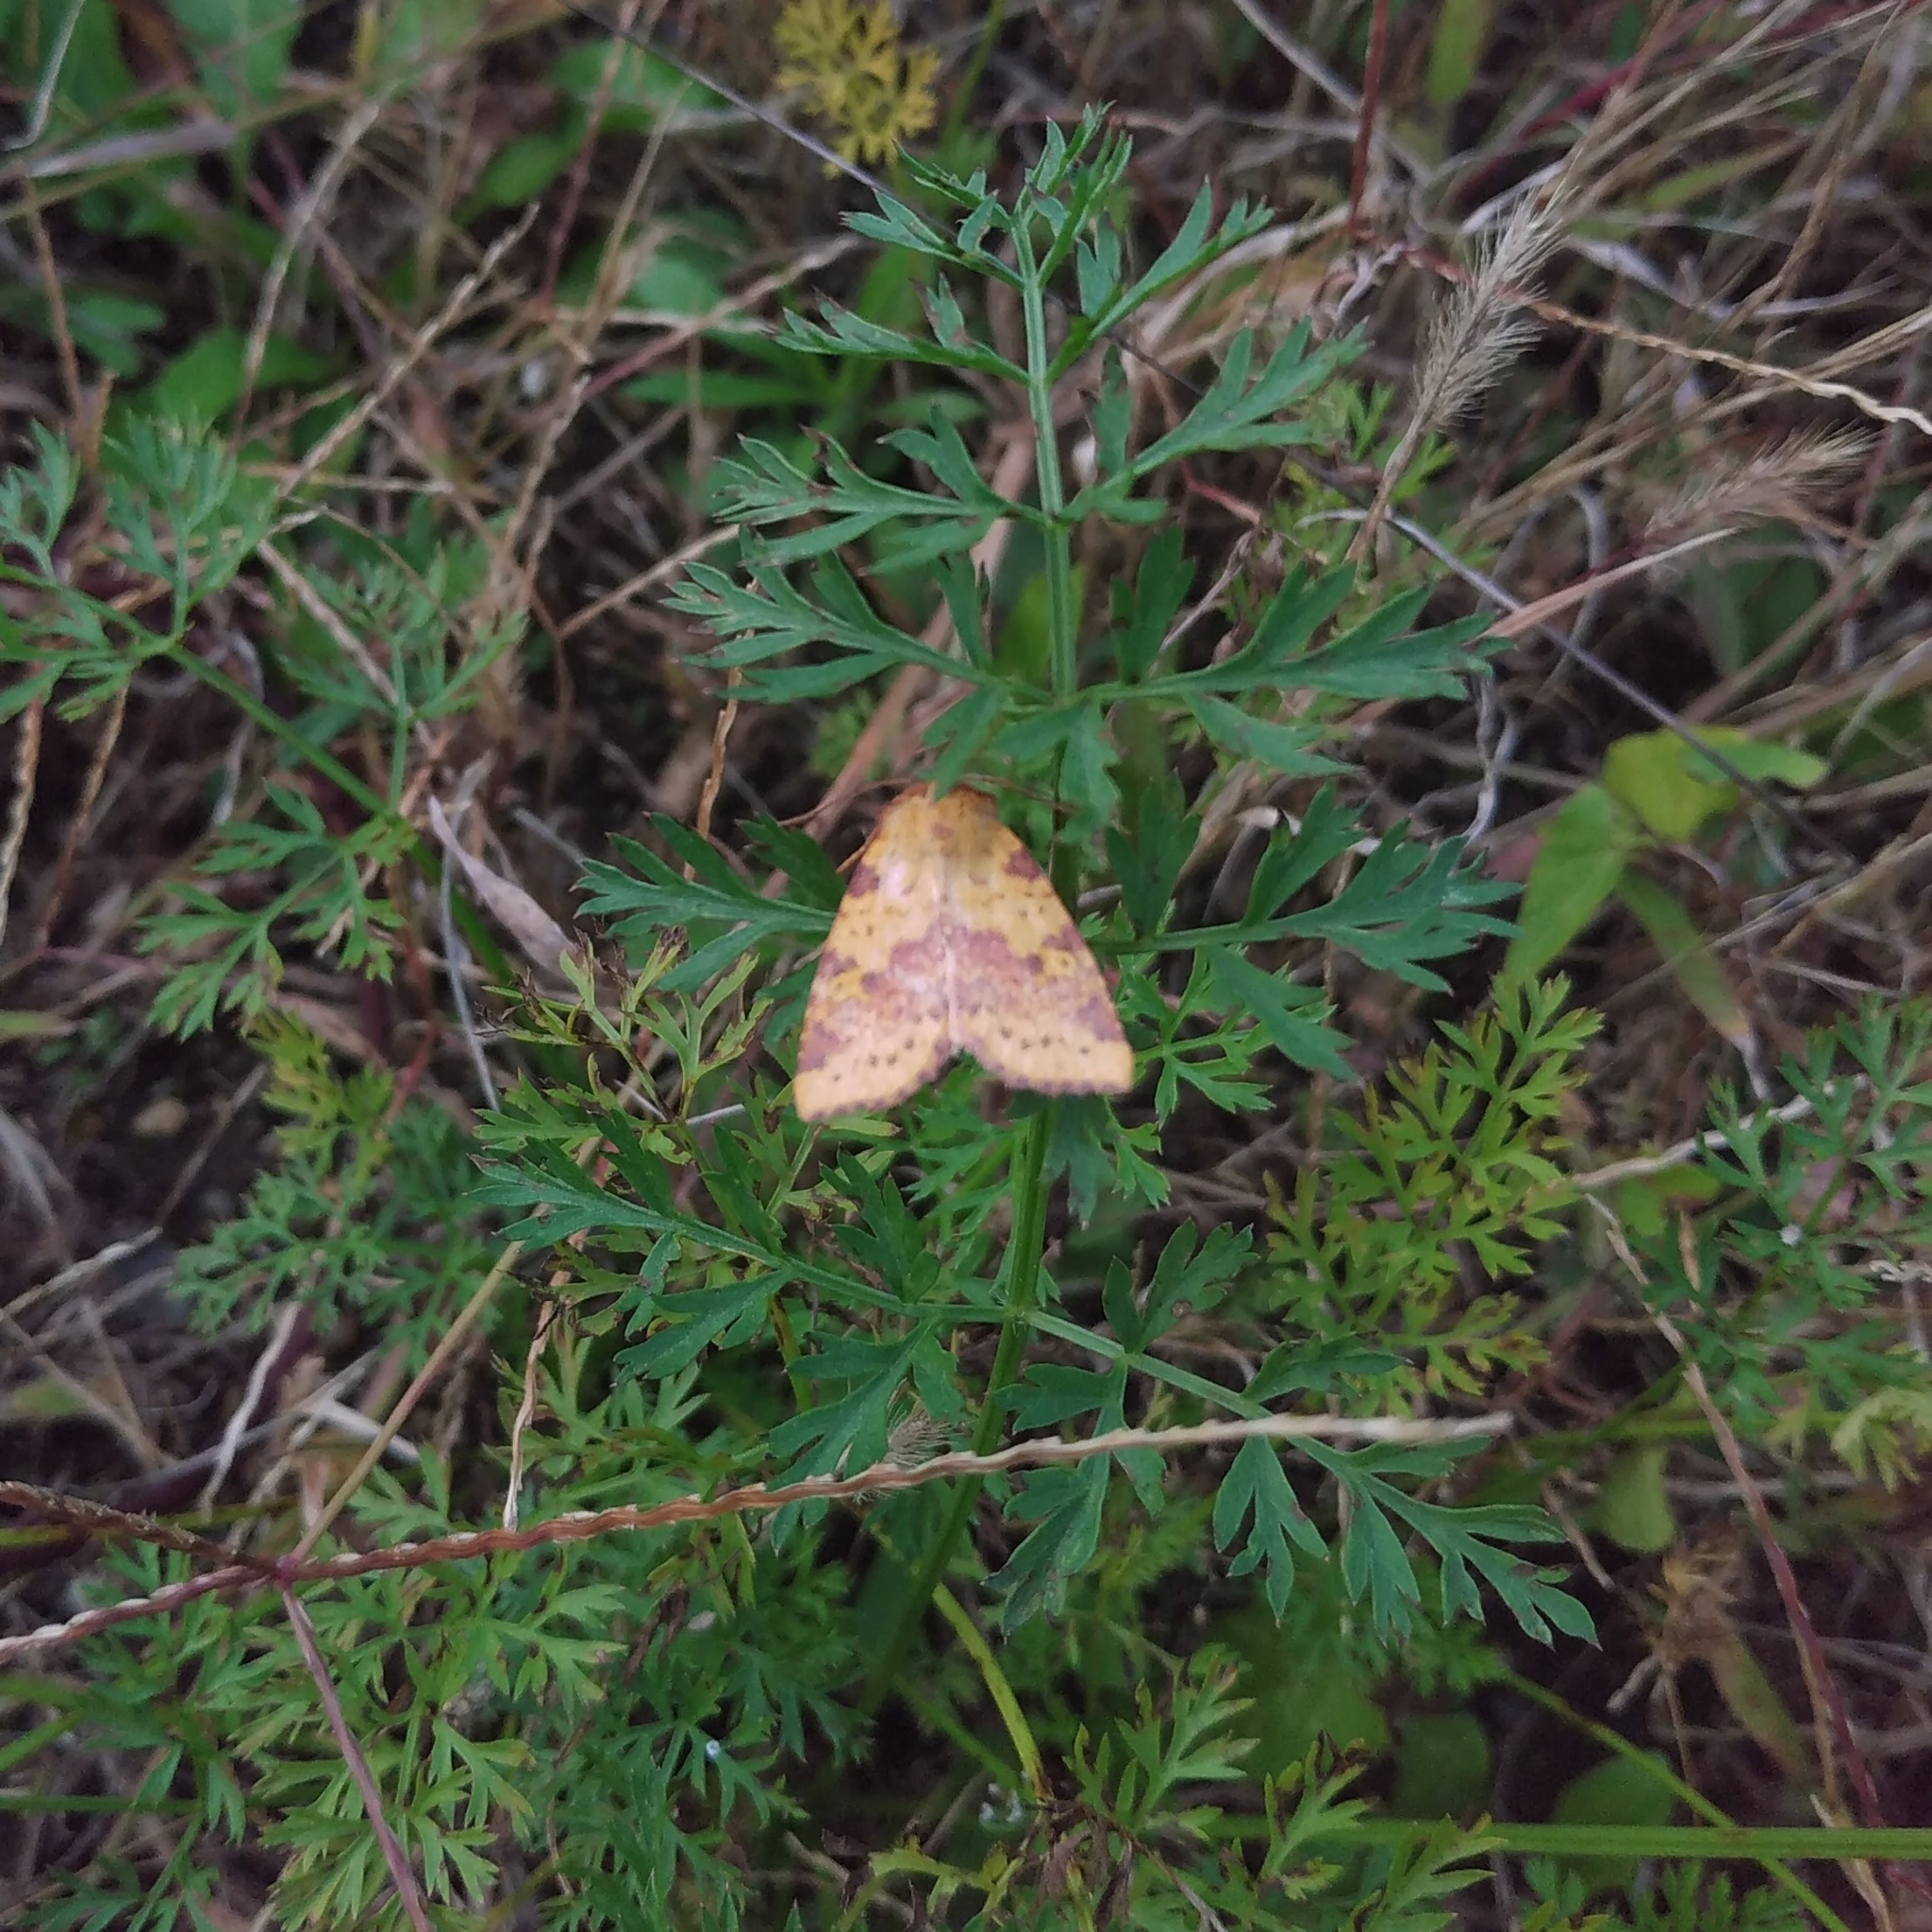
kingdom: Animalia
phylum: Arthropoda
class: Insecta
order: Lepidoptera
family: Noctuidae
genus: Xanthia
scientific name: Xanthia togata
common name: Pink-barred sallow
